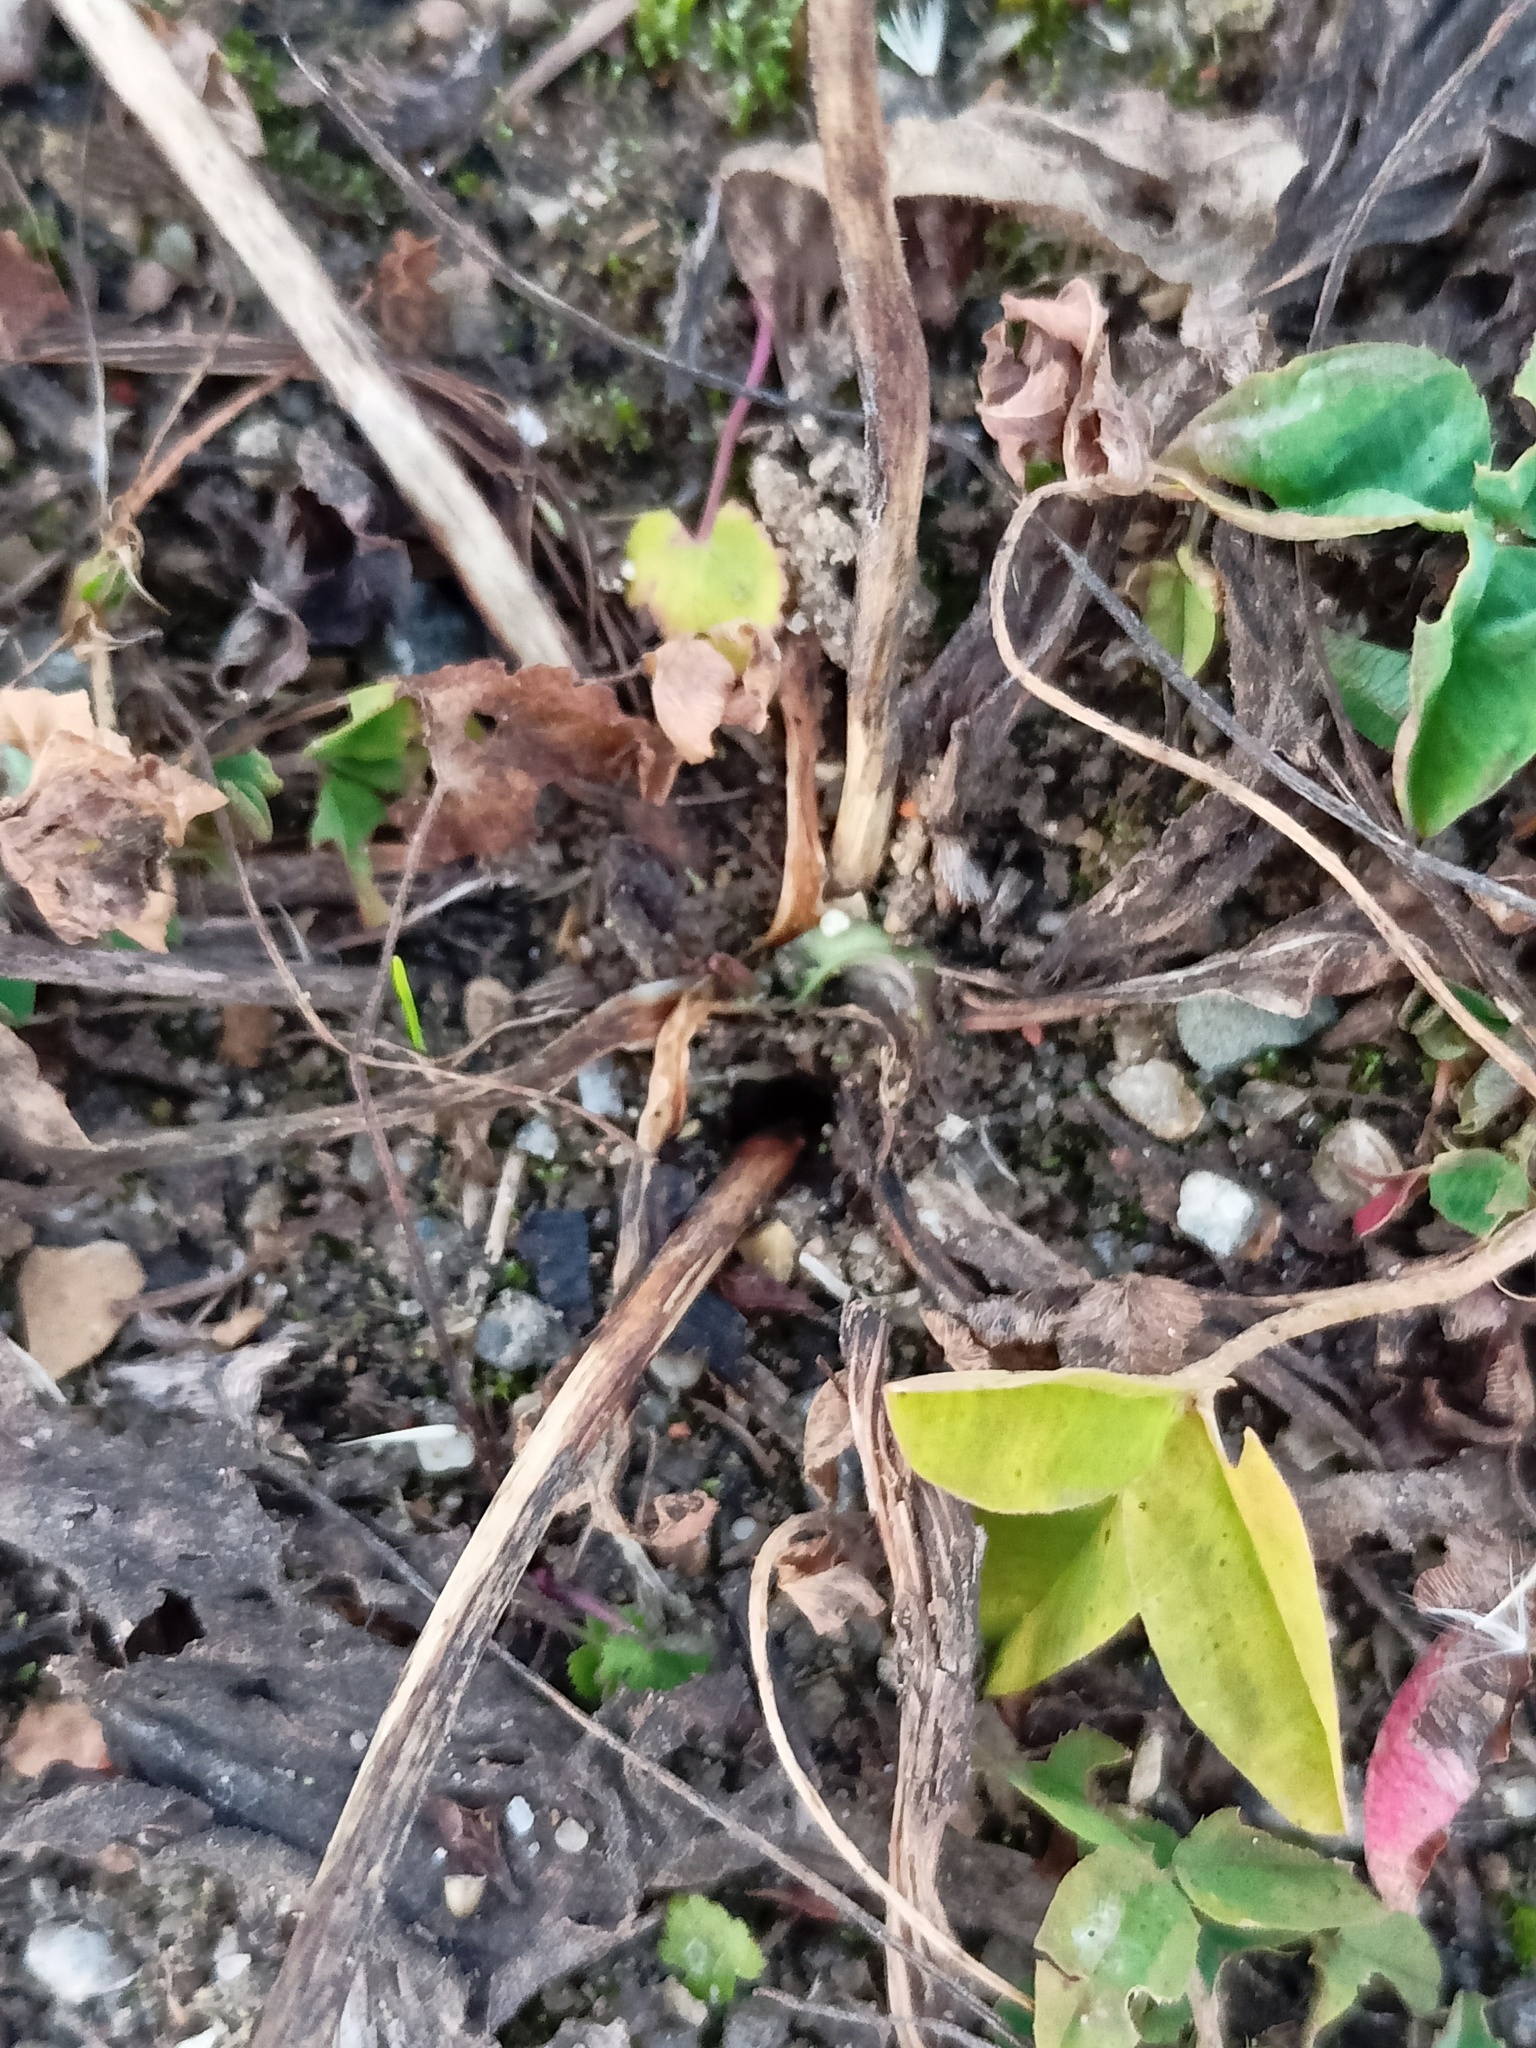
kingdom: Plantae
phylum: Tracheophyta
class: Magnoliopsida
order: Lamiales
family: Plantaginaceae
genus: Plantago
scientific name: Plantago major
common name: Common plantain
